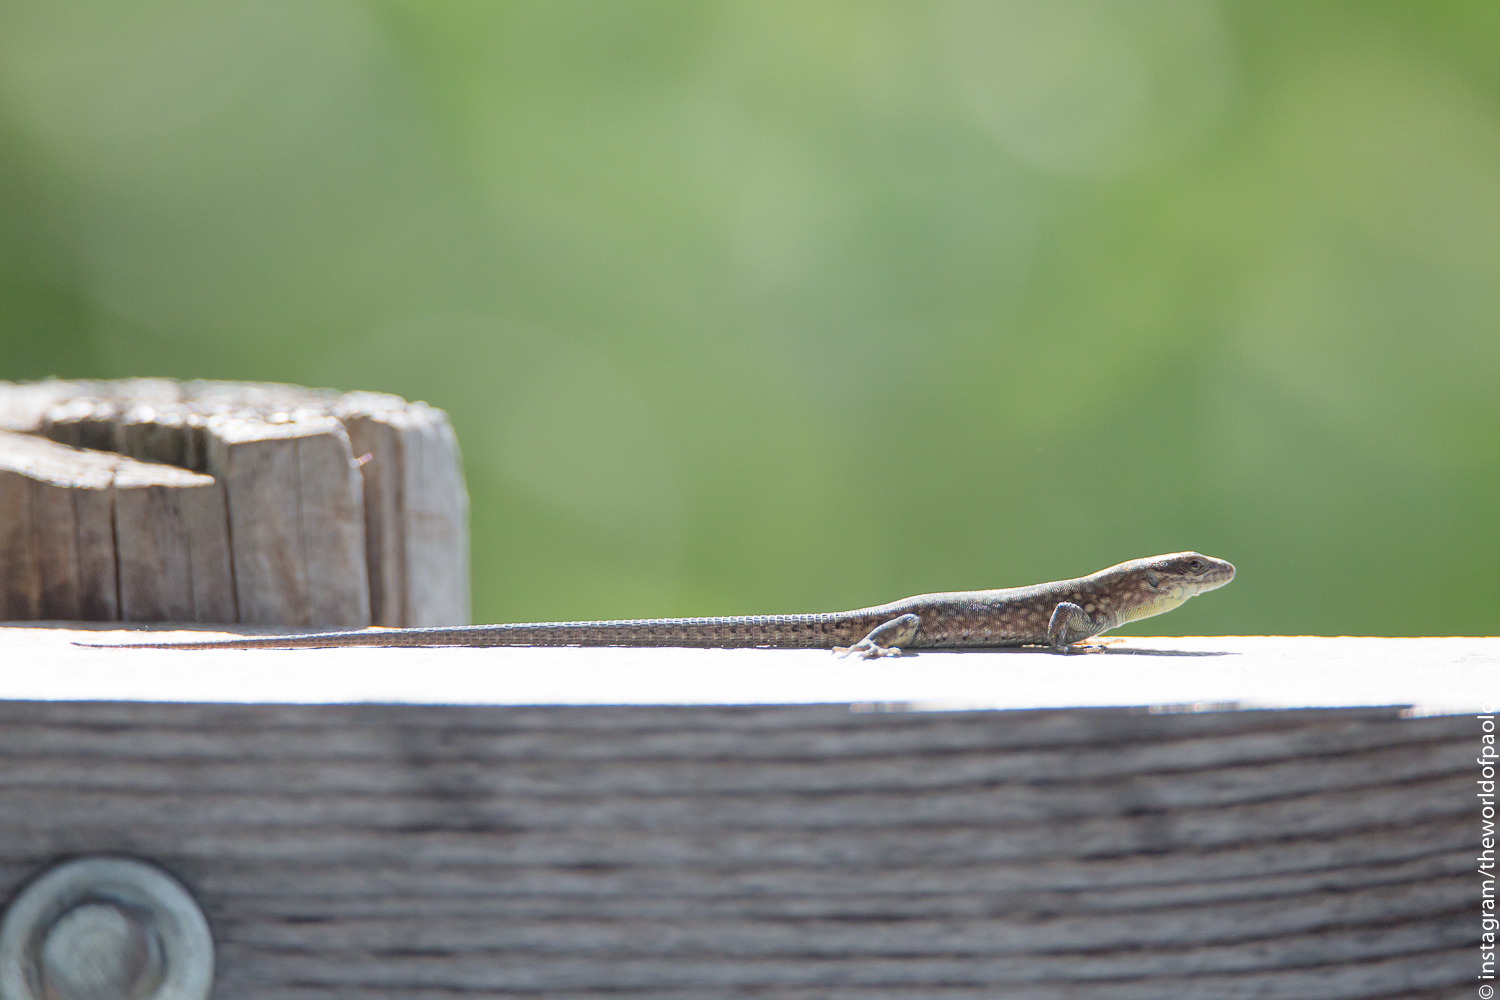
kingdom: Animalia
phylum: Chordata
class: Squamata
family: Lacertidae
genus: Podarcis
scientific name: Podarcis muralis
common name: Common wall lizard
